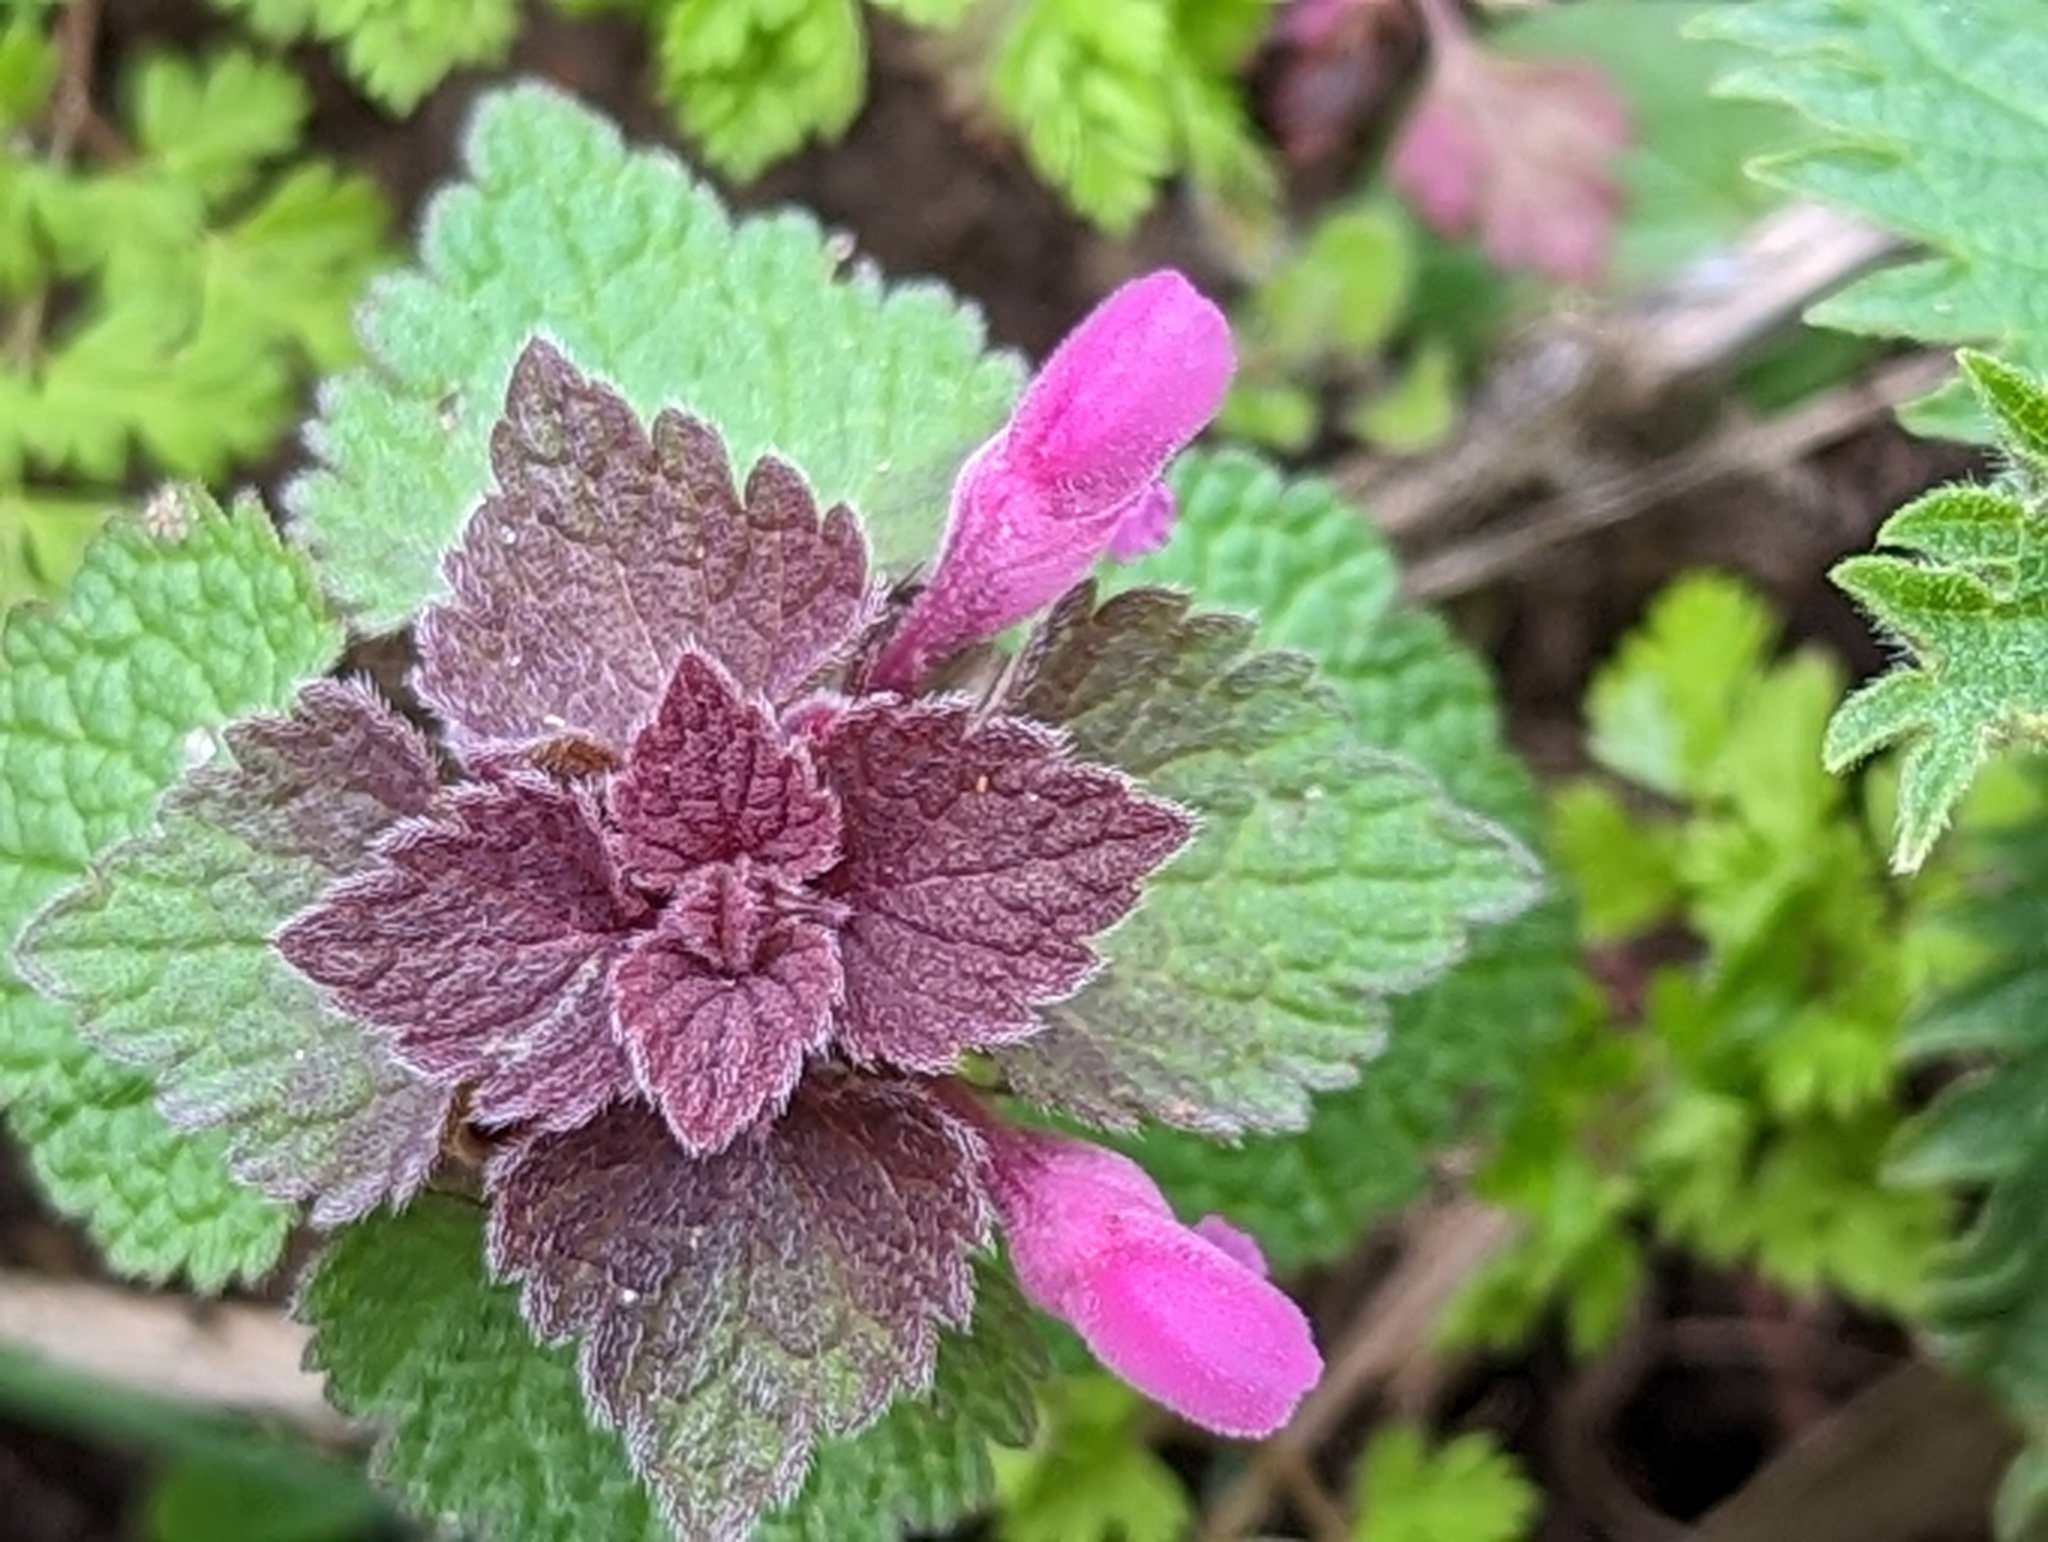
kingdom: Plantae
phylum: Tracheophyta
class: Magnoliopsida
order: Lamiales
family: Lamiaceae
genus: Lamium
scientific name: Lamium purpureum
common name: Red dead-nettle
